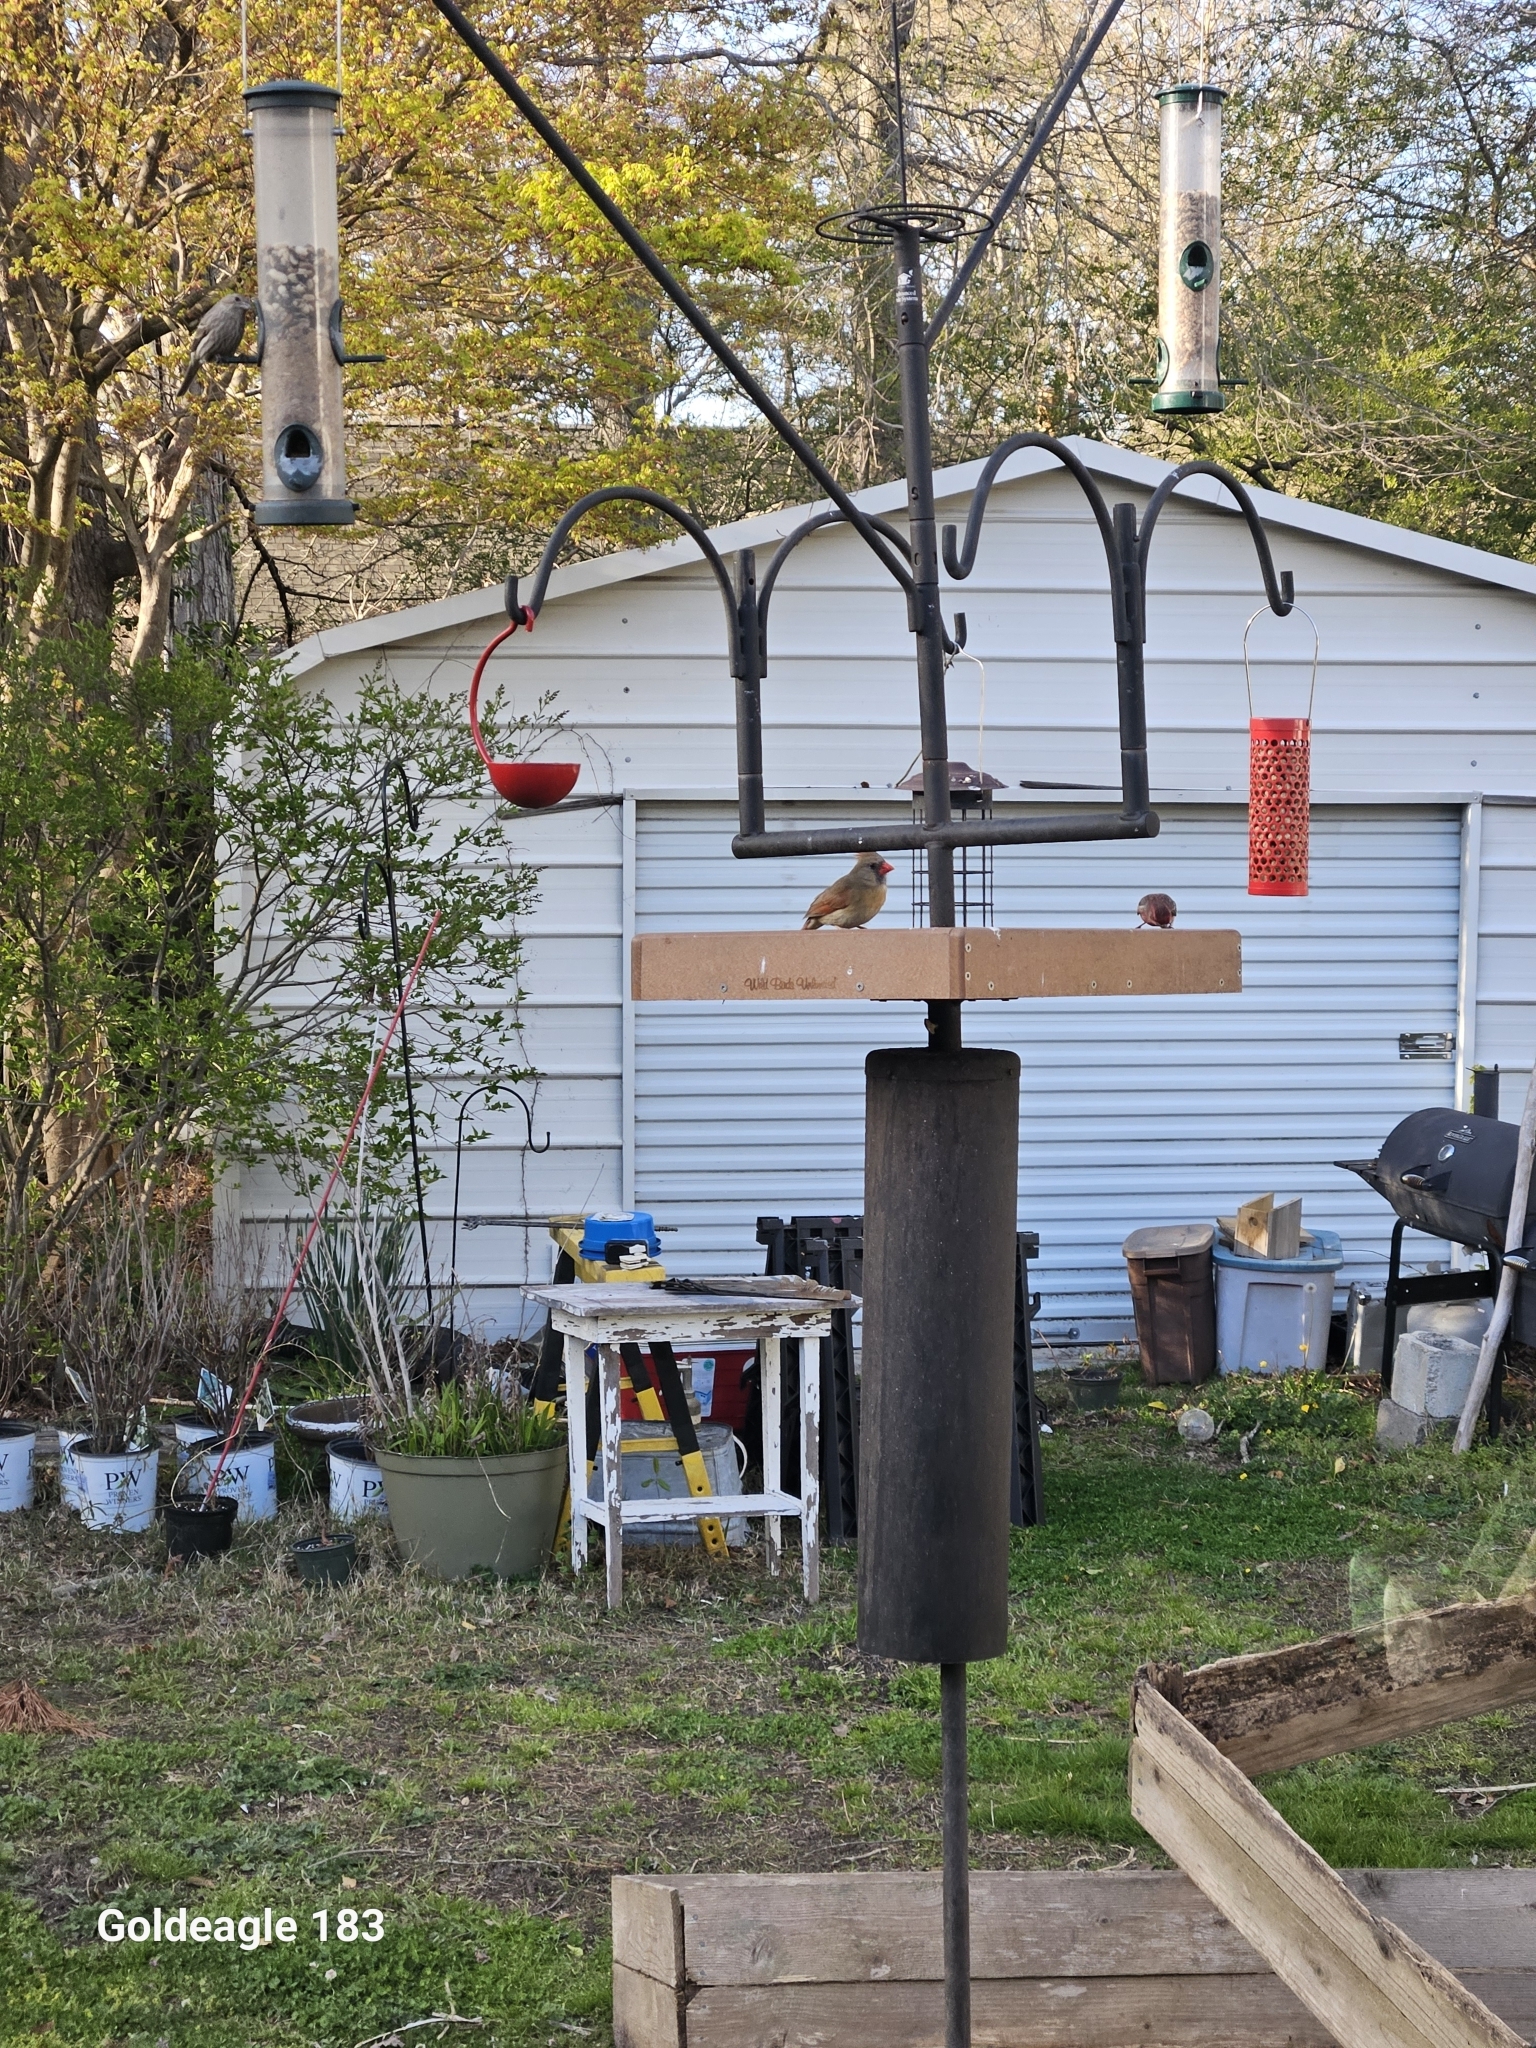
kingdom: Animalia
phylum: Chordata
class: Aves
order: Passeriformes
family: Cardinalidae
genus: Cardinalis
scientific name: Cardinalis cardinalis
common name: Northern cardinal
